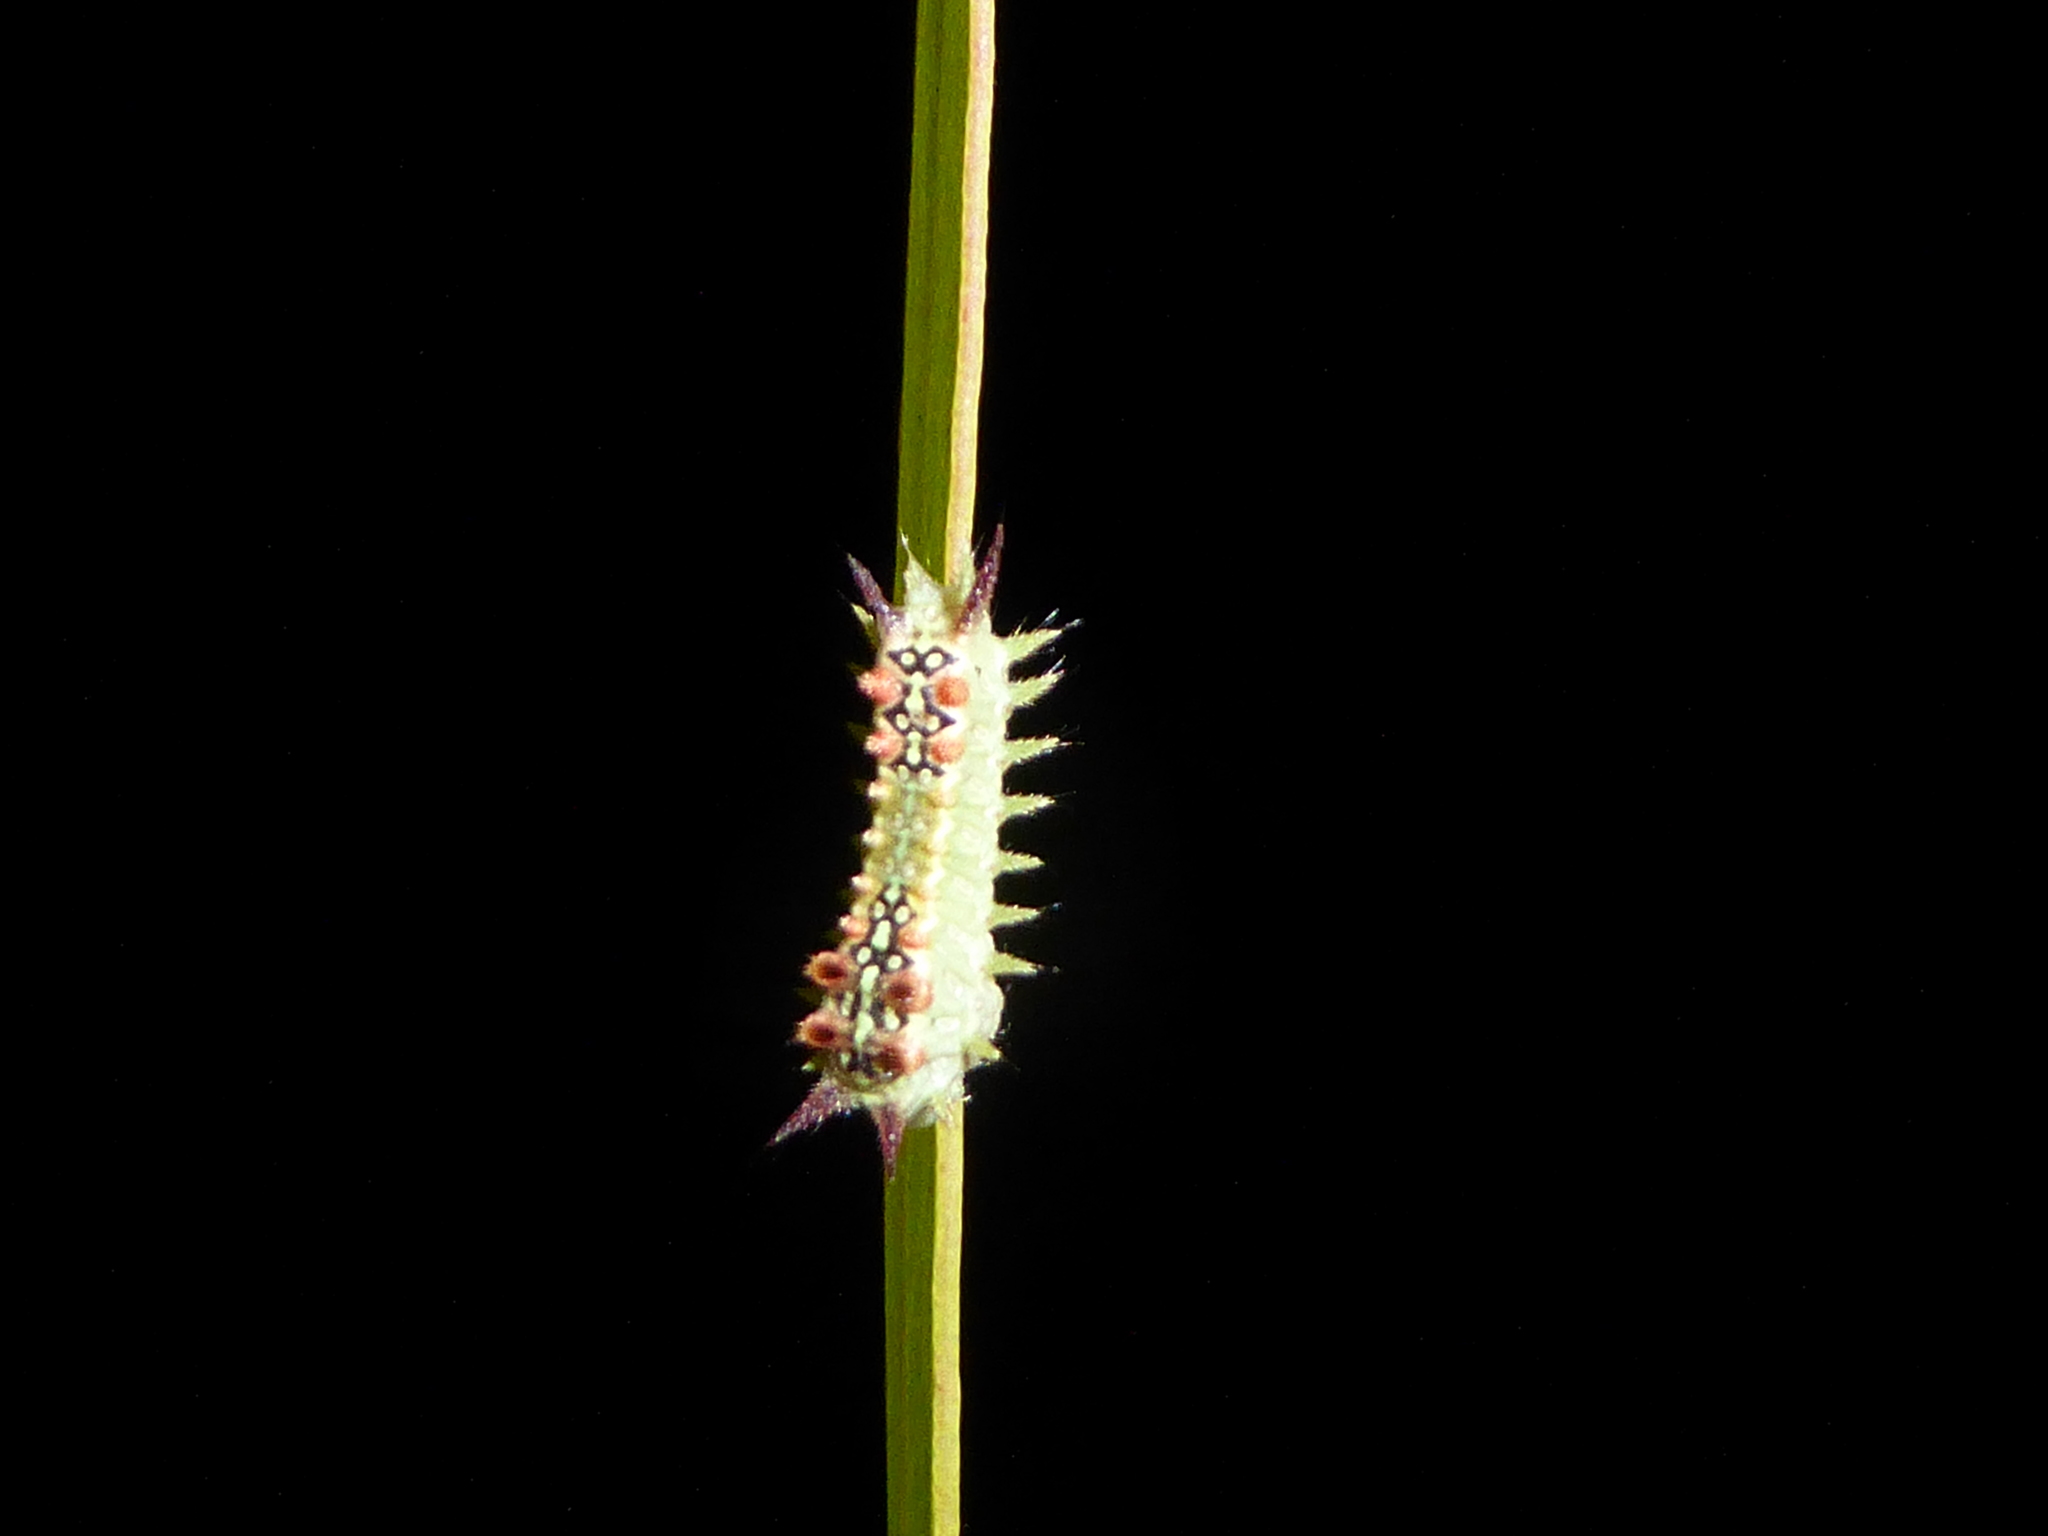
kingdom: Animalia
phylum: Arthropoda
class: Insecta
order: Lepidoptera
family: Limacodidae
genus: Doratifera
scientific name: Doratifera quadriguttata
